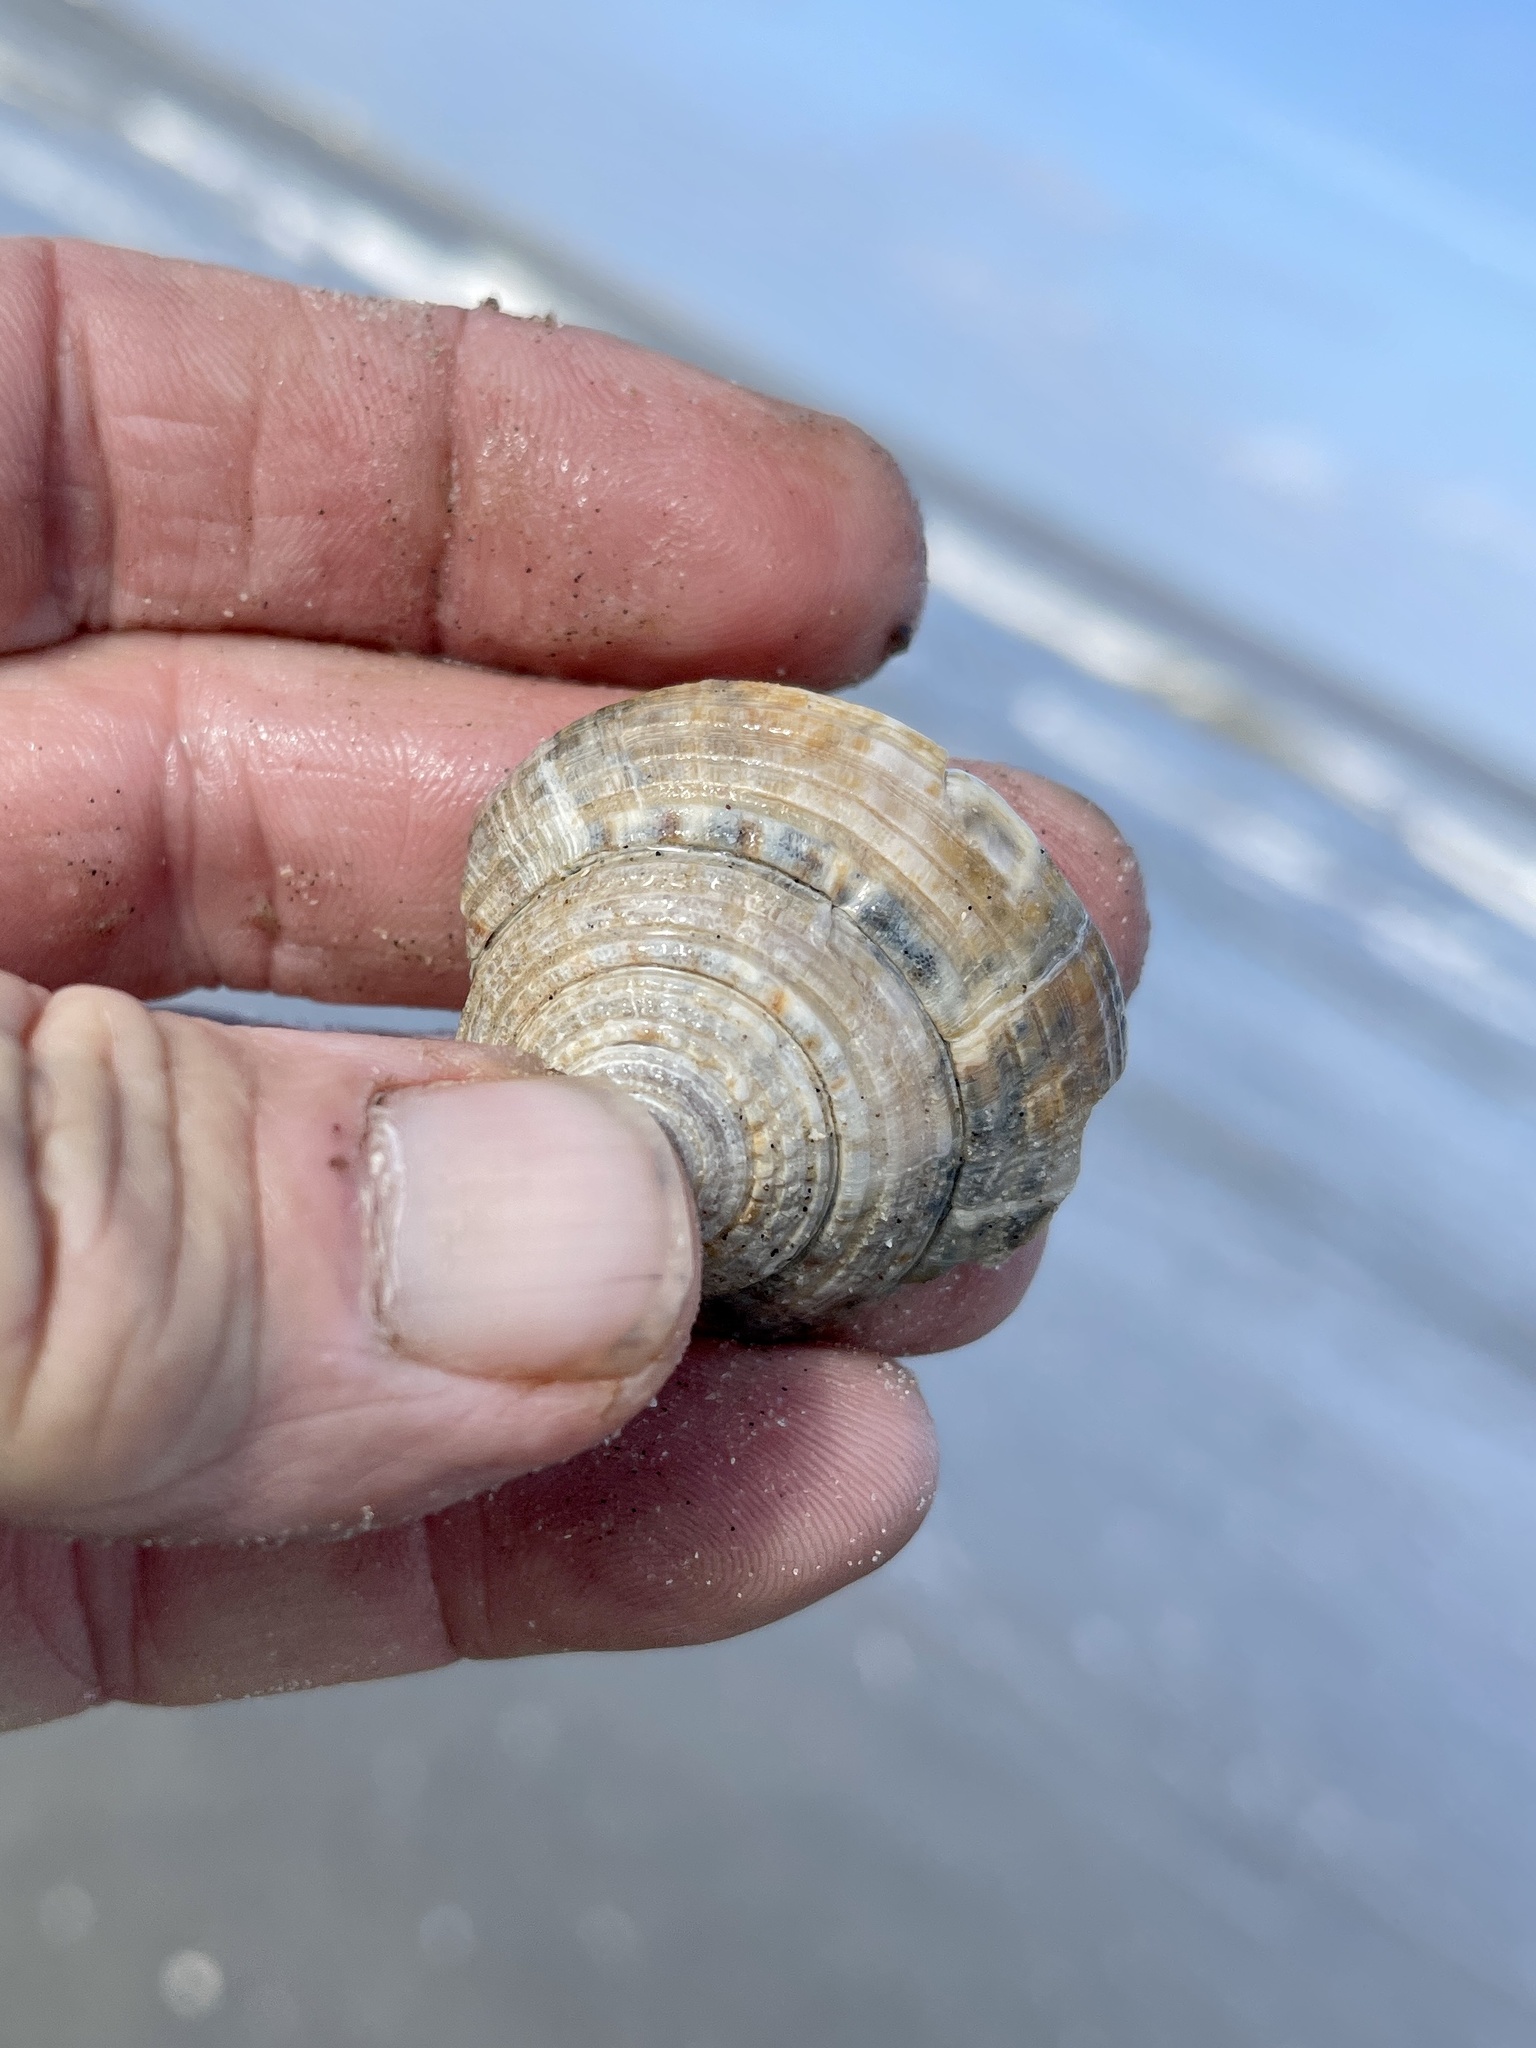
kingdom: Animalia
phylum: Mollusca
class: Gastropoda
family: Architectonicidae
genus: Architectonica
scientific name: Architectonica nobilis
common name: Common sundial
